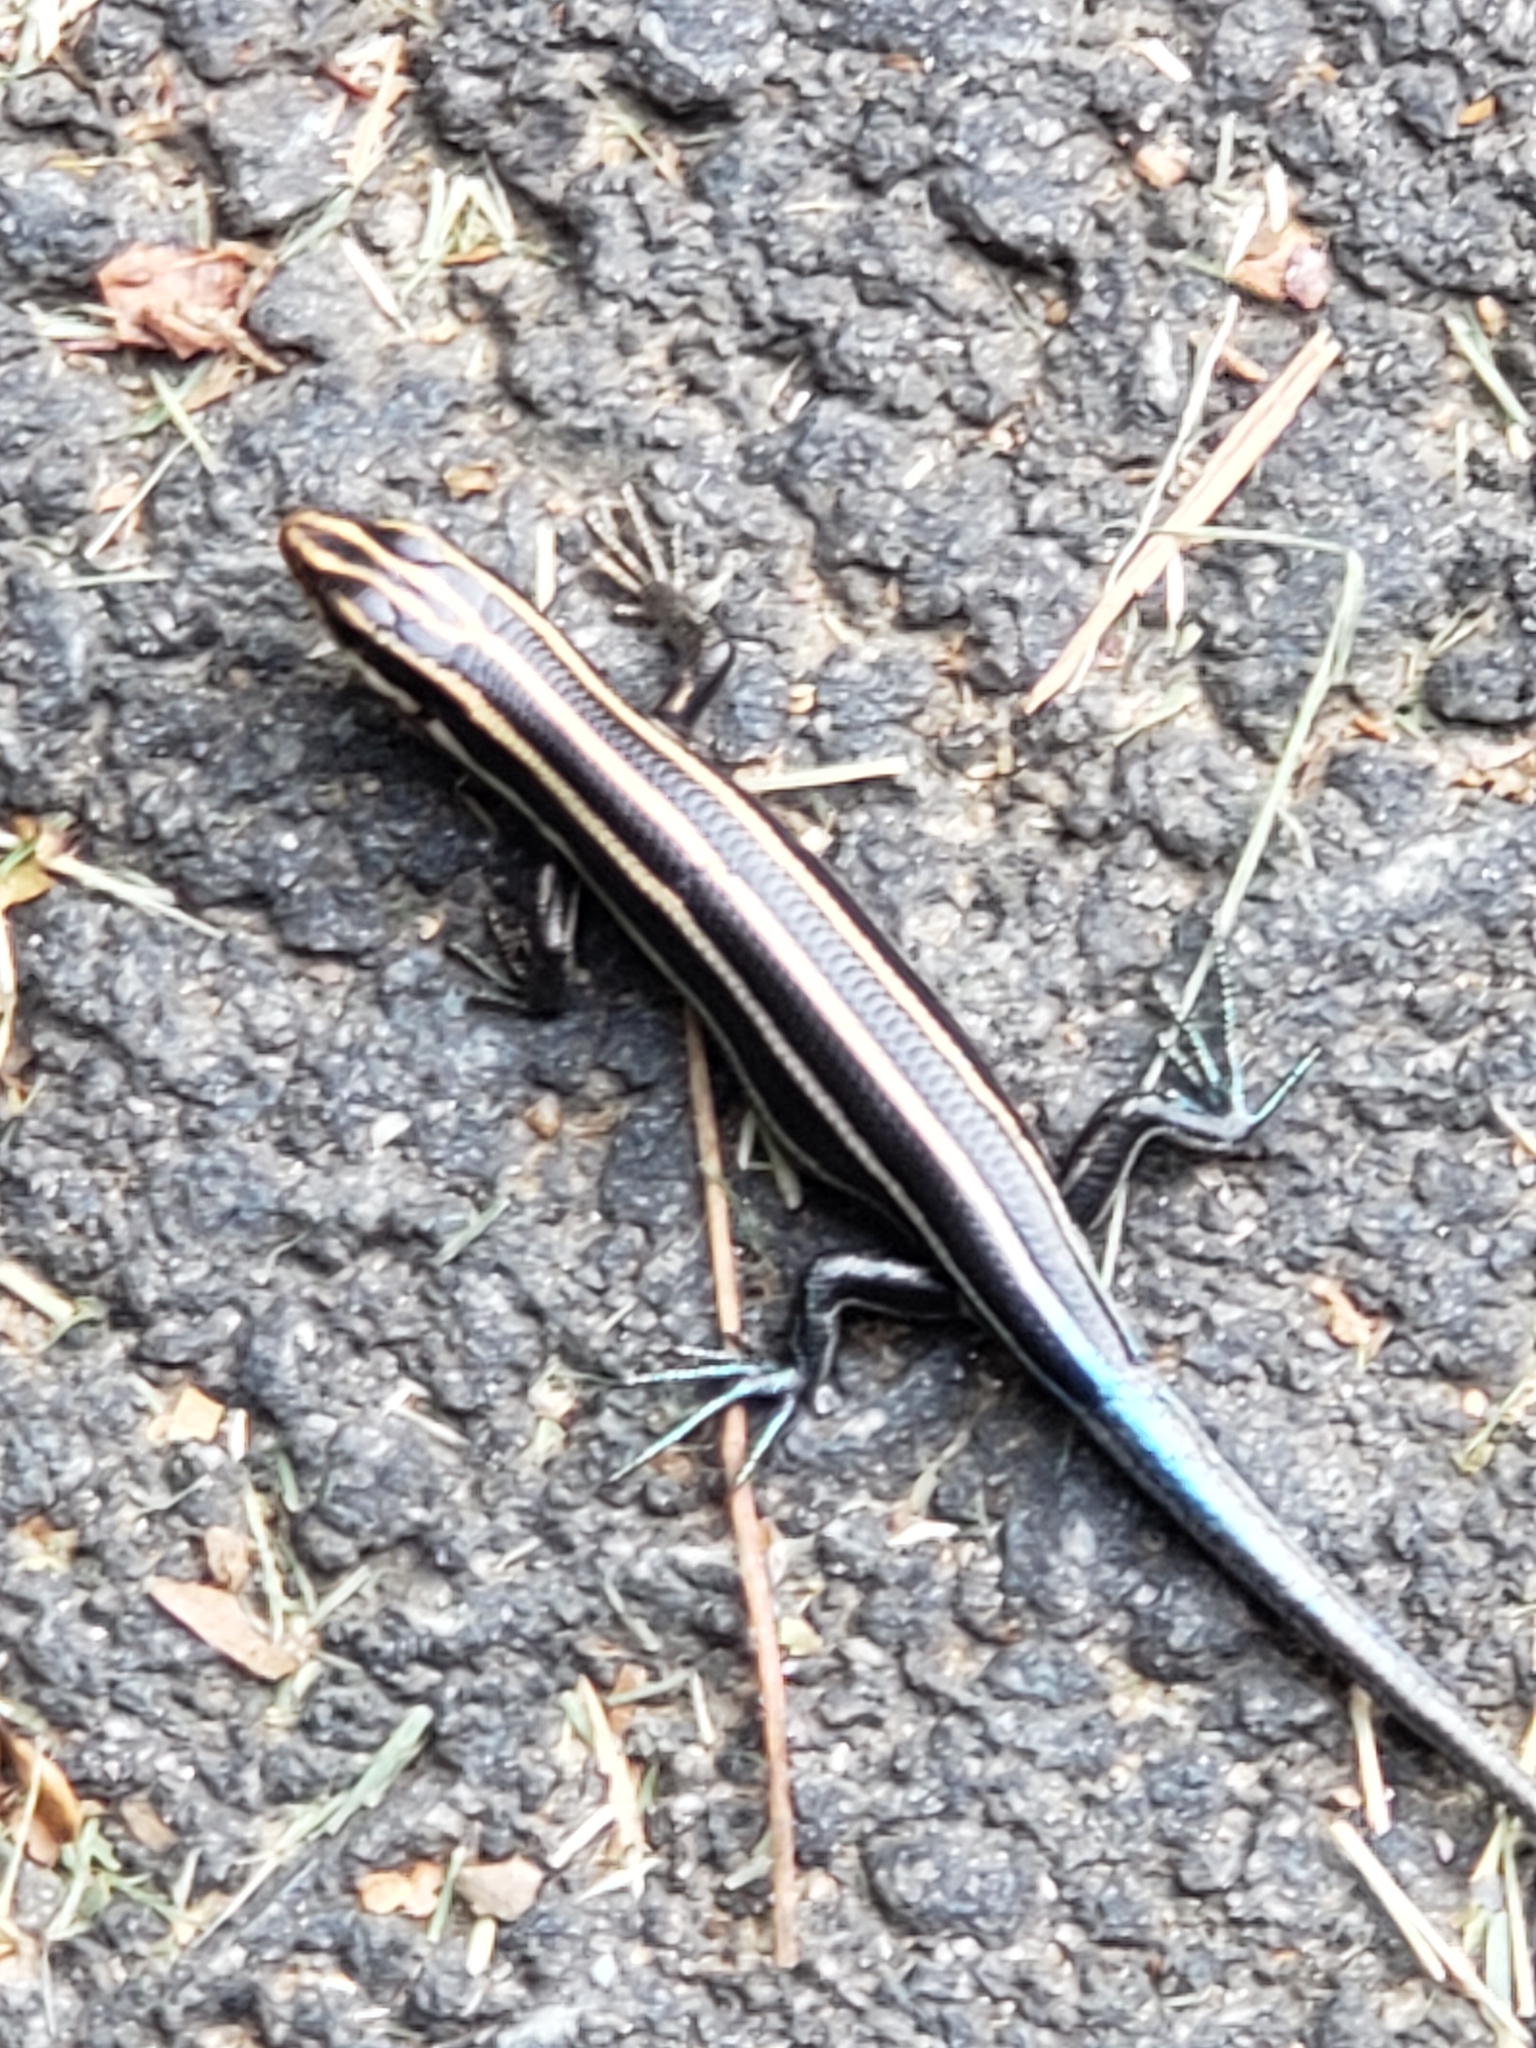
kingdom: Animalia
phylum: Chordata
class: Squamata
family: Scincidae
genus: Plestiodon
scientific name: Plestiodon fasciatus
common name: Five-lined skink
